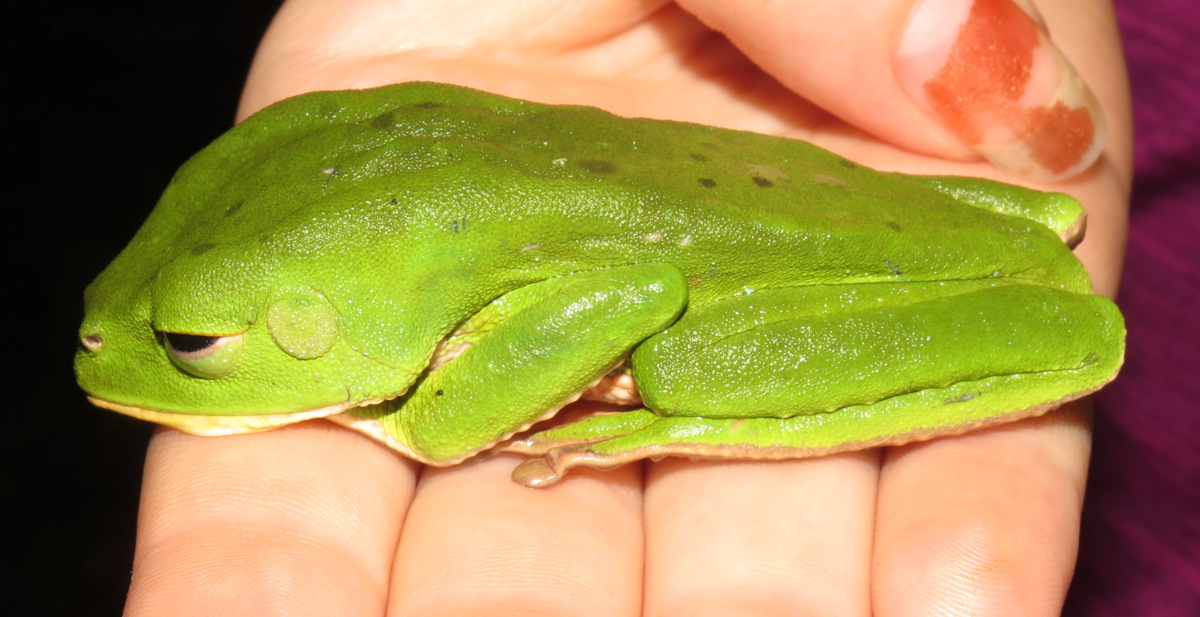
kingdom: Animalia
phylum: Chordata
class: Amphibia
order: Anura
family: Phyllomedusidae
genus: Phyllomedusa
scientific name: Phyllomedusa trinitatis
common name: Trinidad leaf-nesting frog
